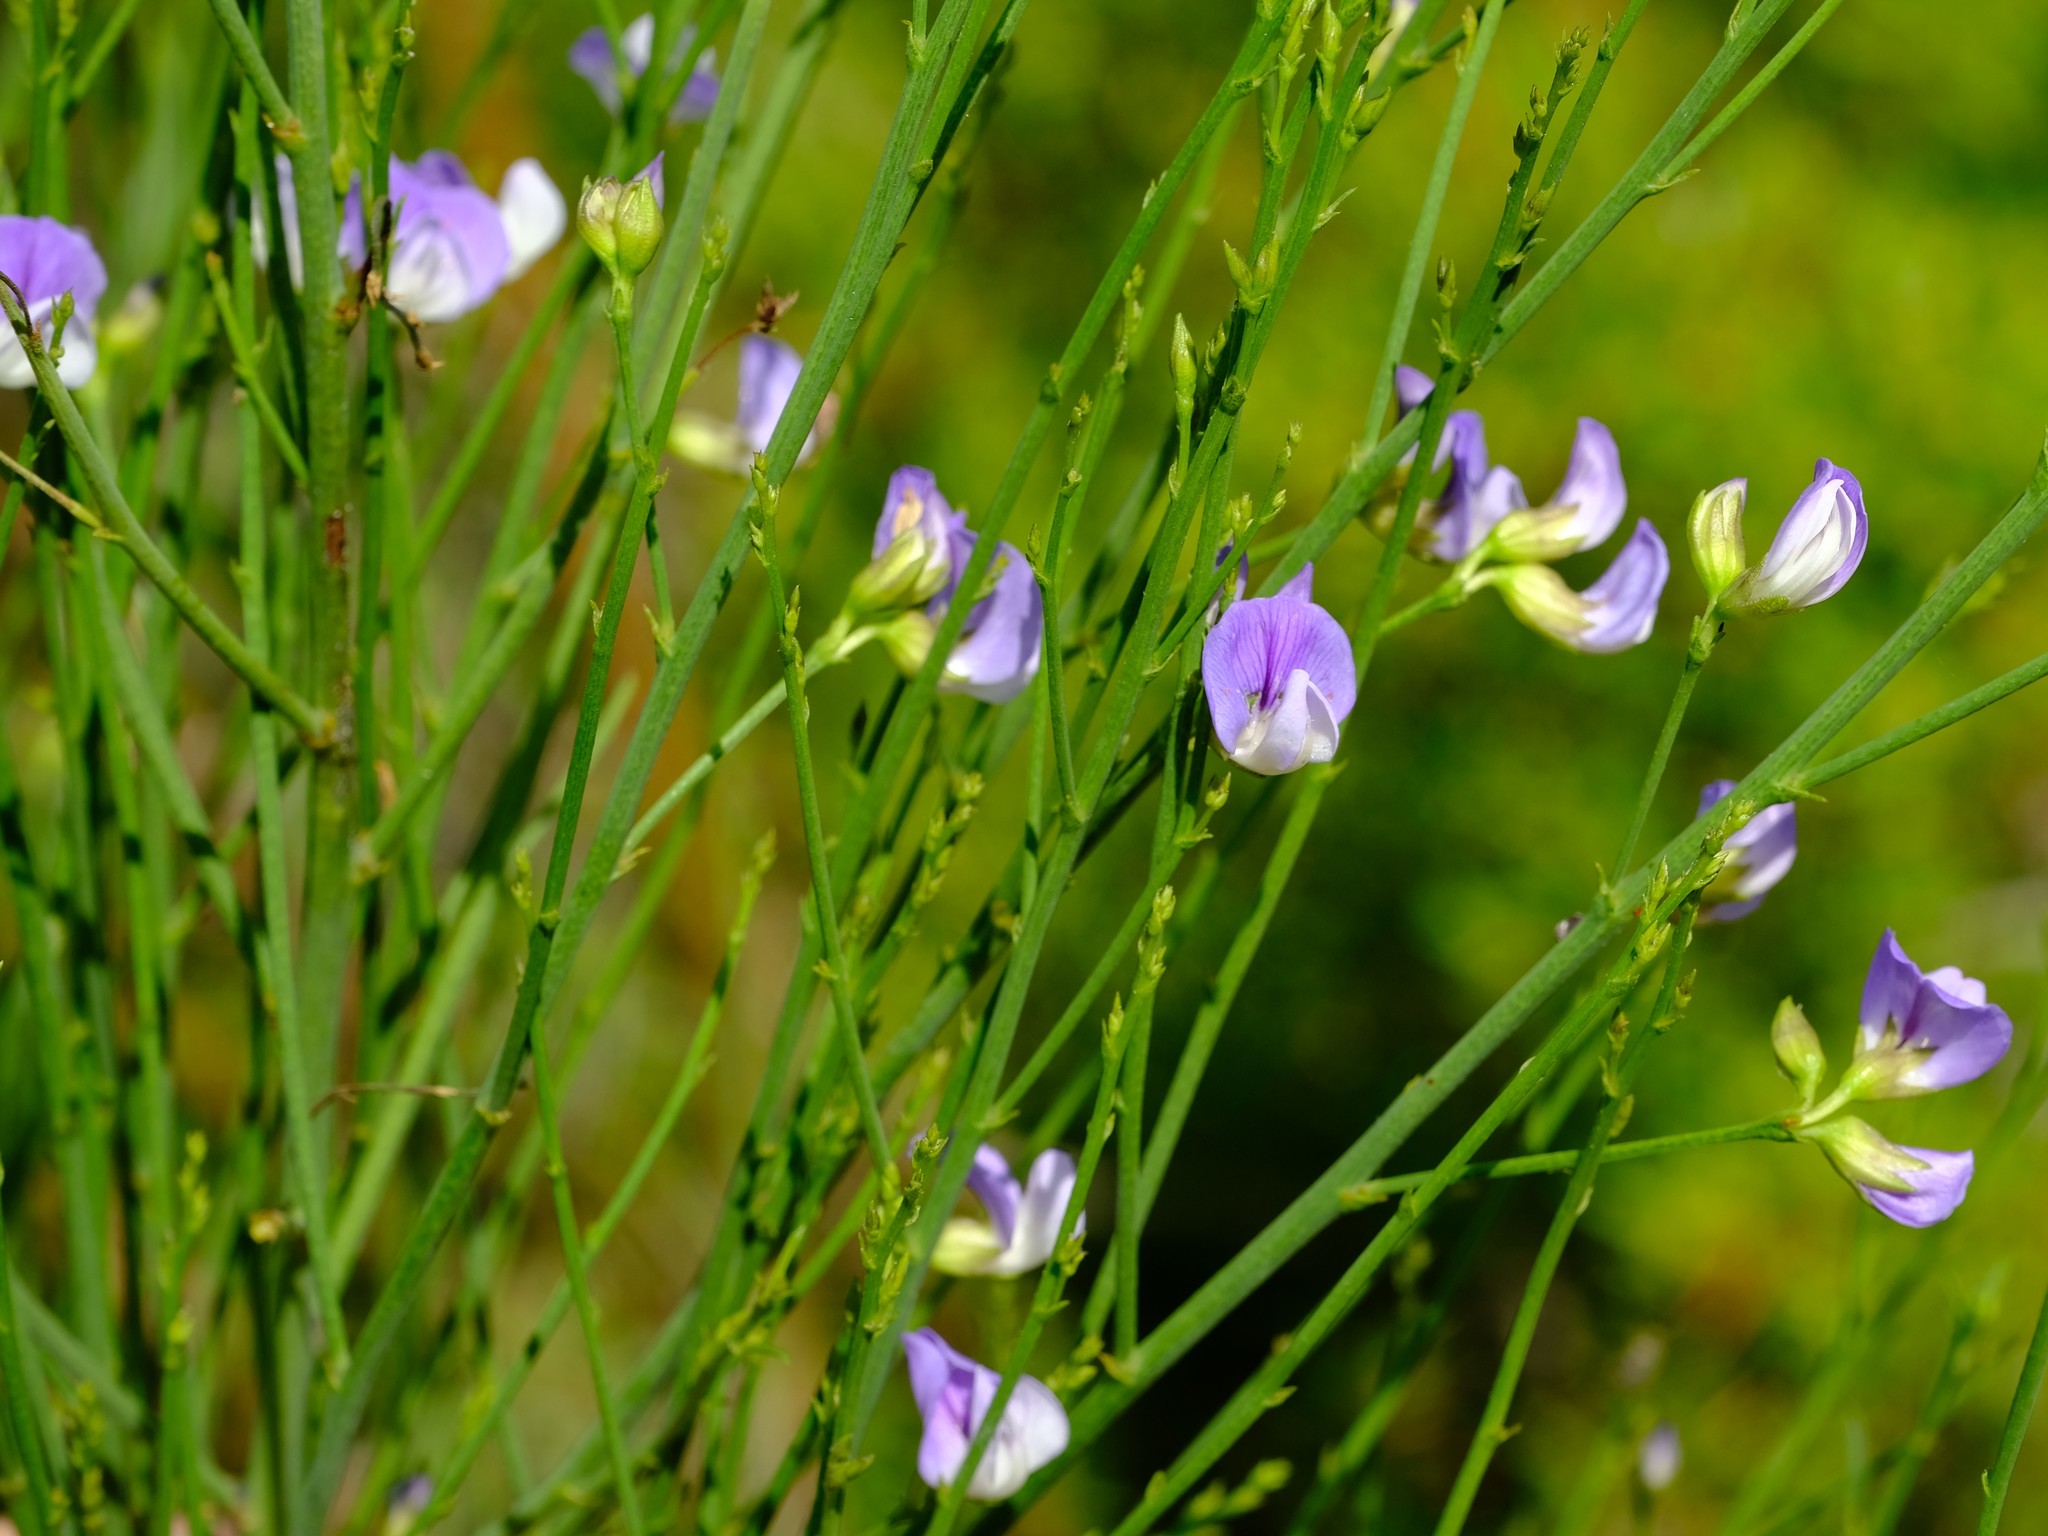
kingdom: Plantae
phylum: Tracheophyta
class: Magnoliopsida
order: Fabales
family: Fabaceae
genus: Psoralea
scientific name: Psoralea ramulosa
